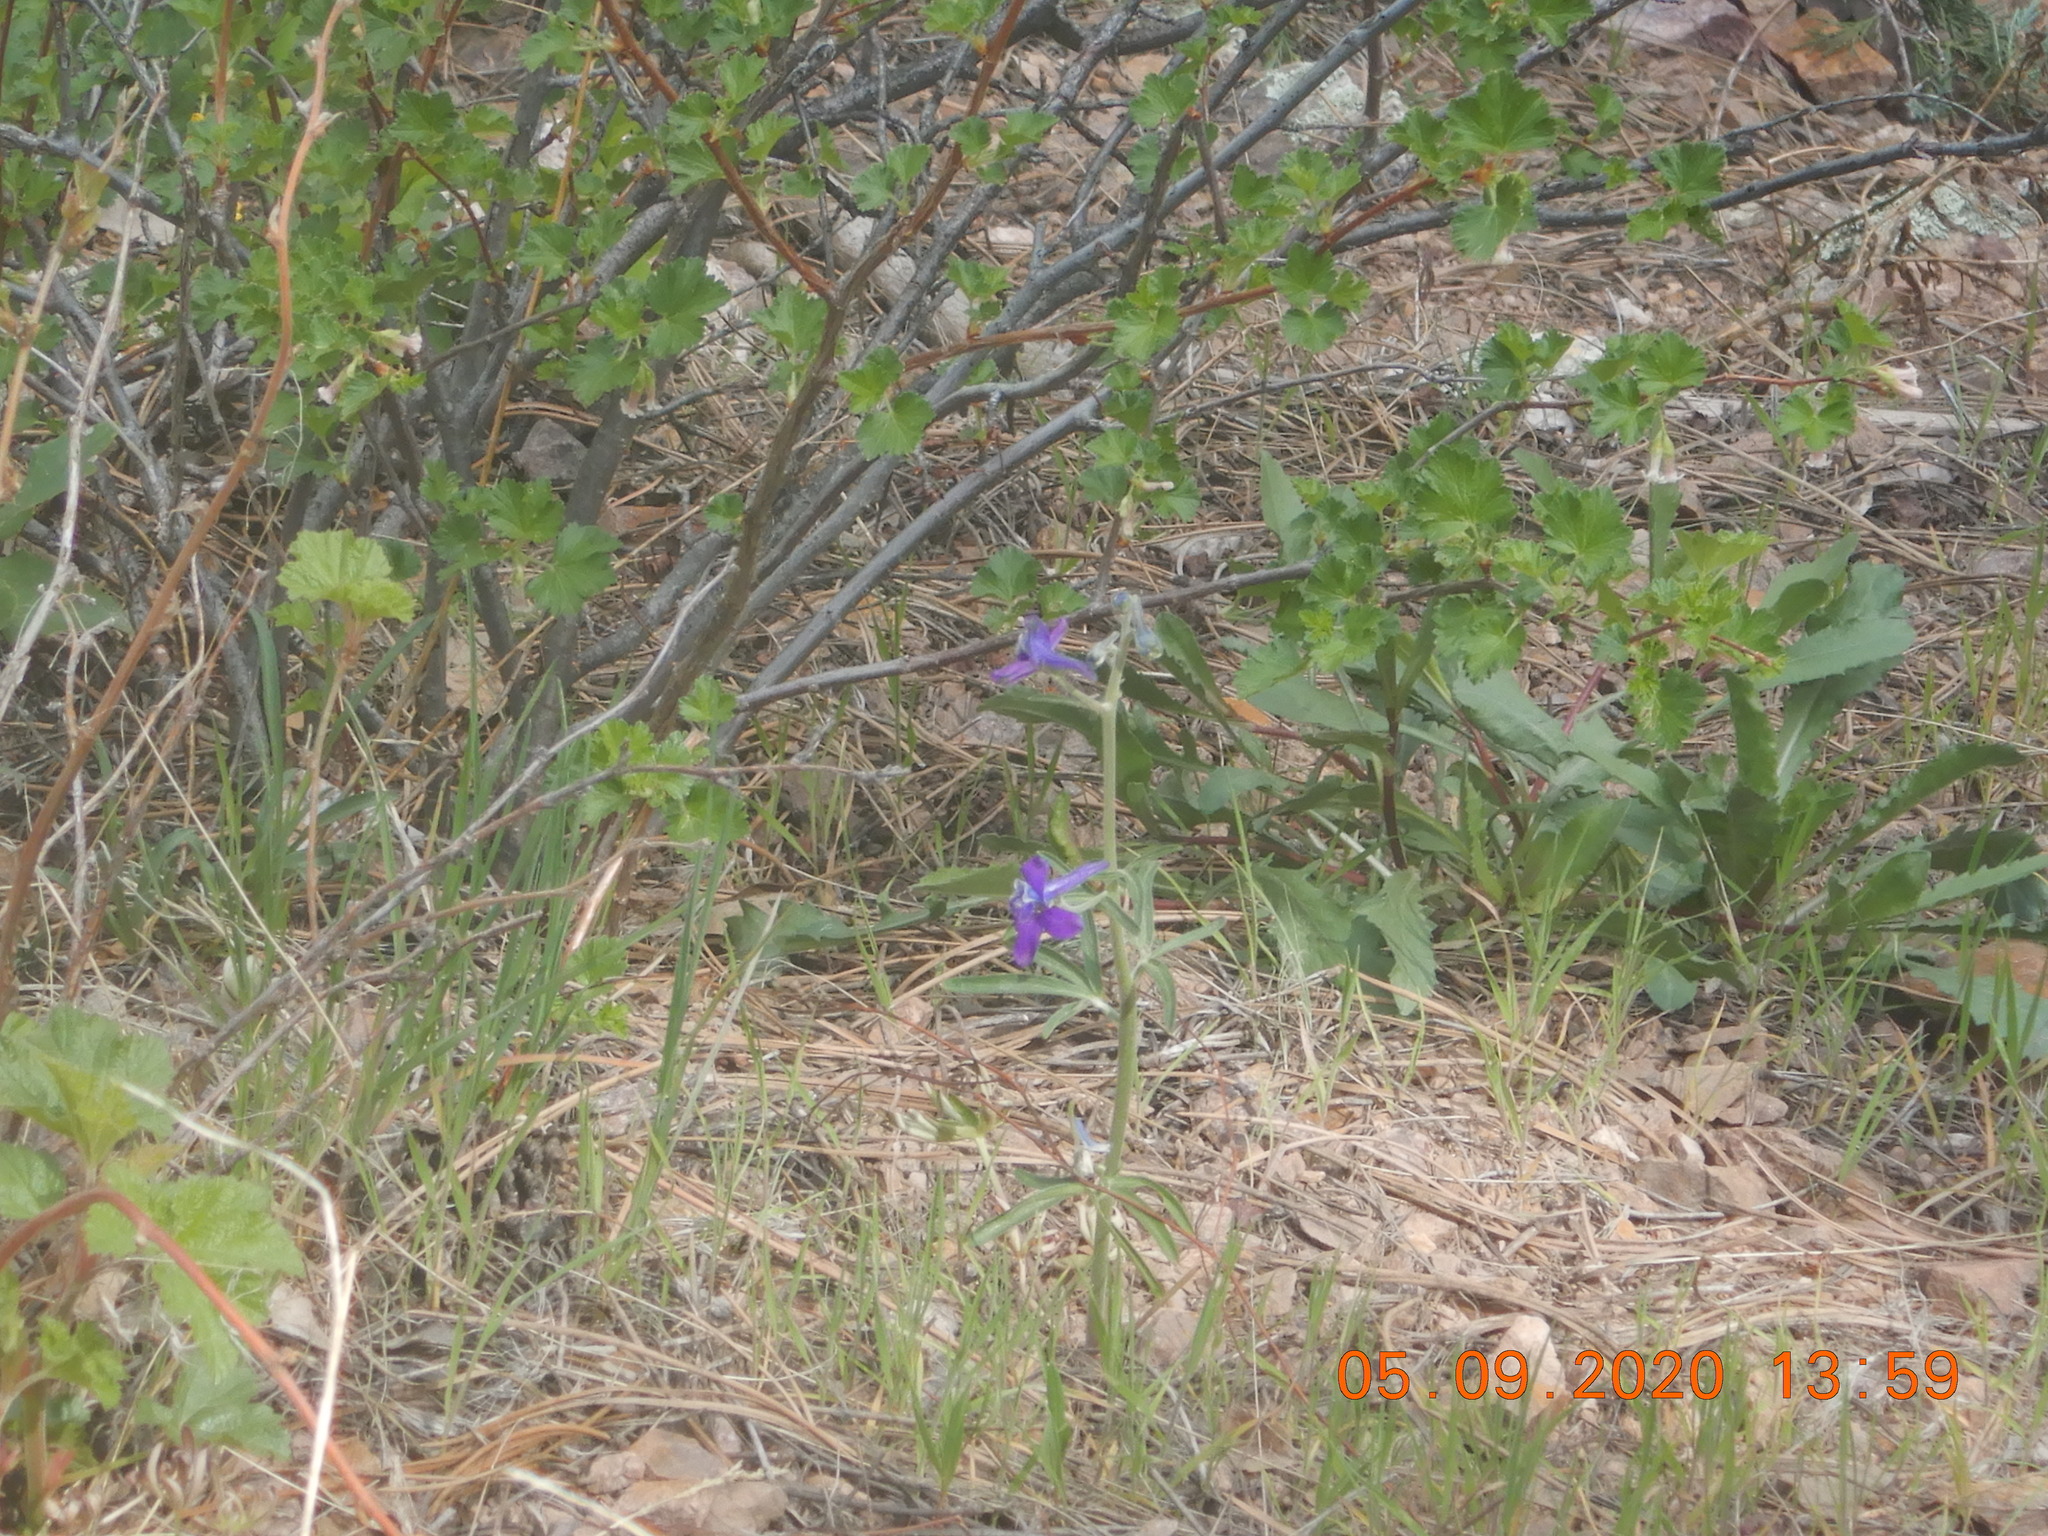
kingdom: Plantae
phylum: Tracheophyta
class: Magnoliopsida
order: Ranunculales
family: Ranunculaceae
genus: Delphinium
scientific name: Delphinium nuttallianum
